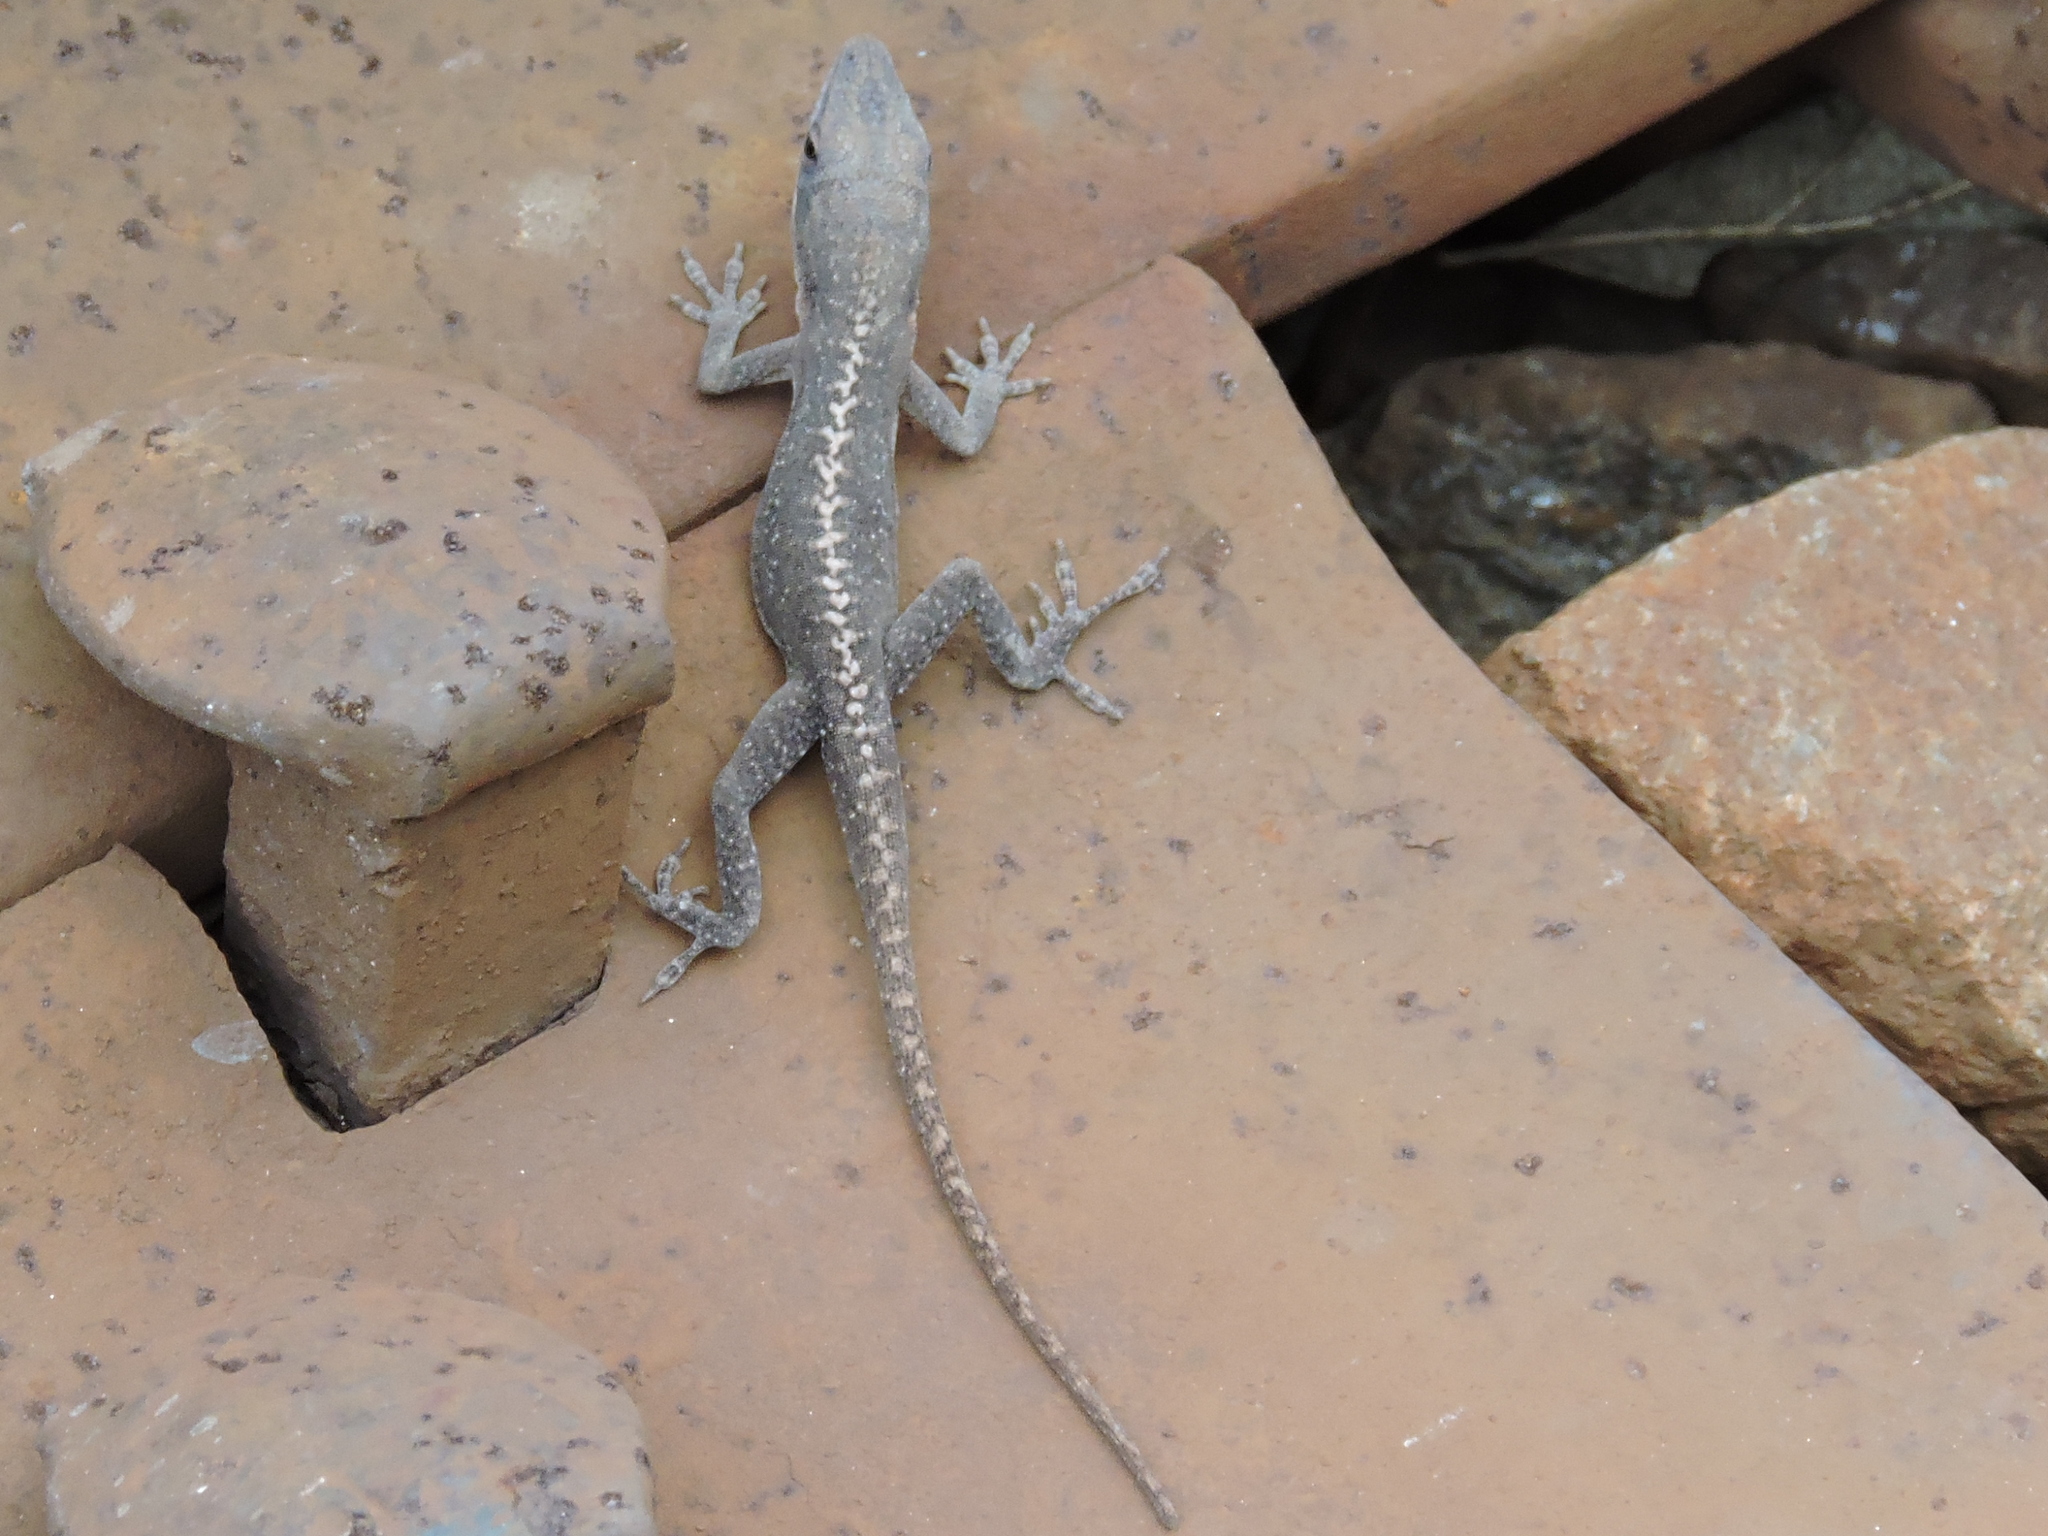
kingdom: Animalia
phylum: Chordata
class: Squamata
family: Dactyloidae
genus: Anolis
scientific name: Anolis carolinensis
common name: Green anole
